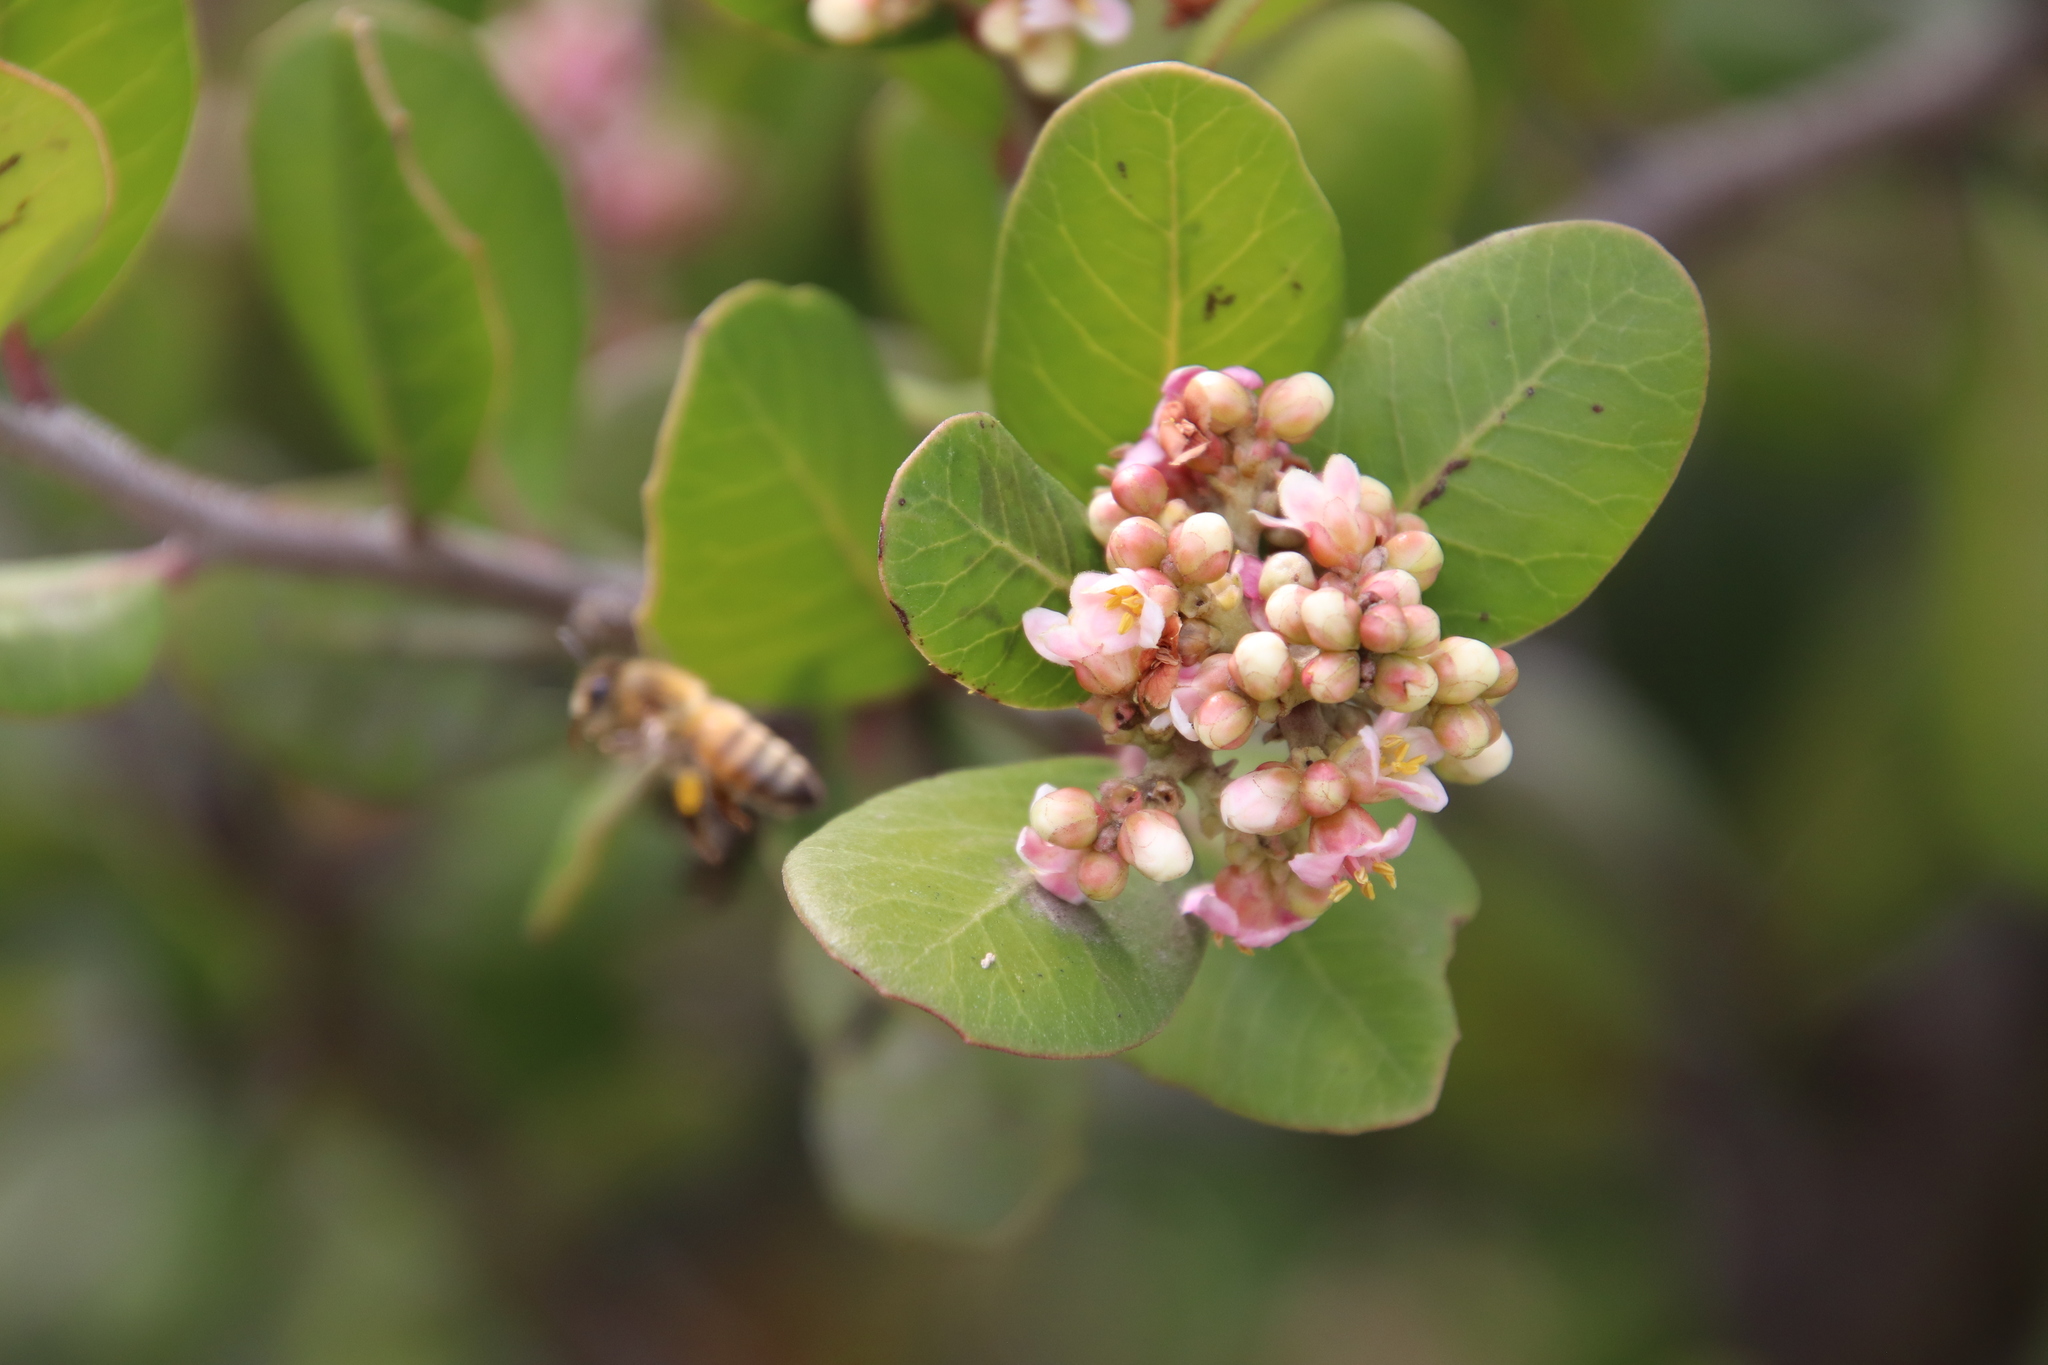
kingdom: Plantae
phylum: Tracheophyta
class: Magnoliopsida
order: Sapindales
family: Anacardiaceae
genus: Rhus
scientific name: Rhus integrifolia
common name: Lemonade sumac
